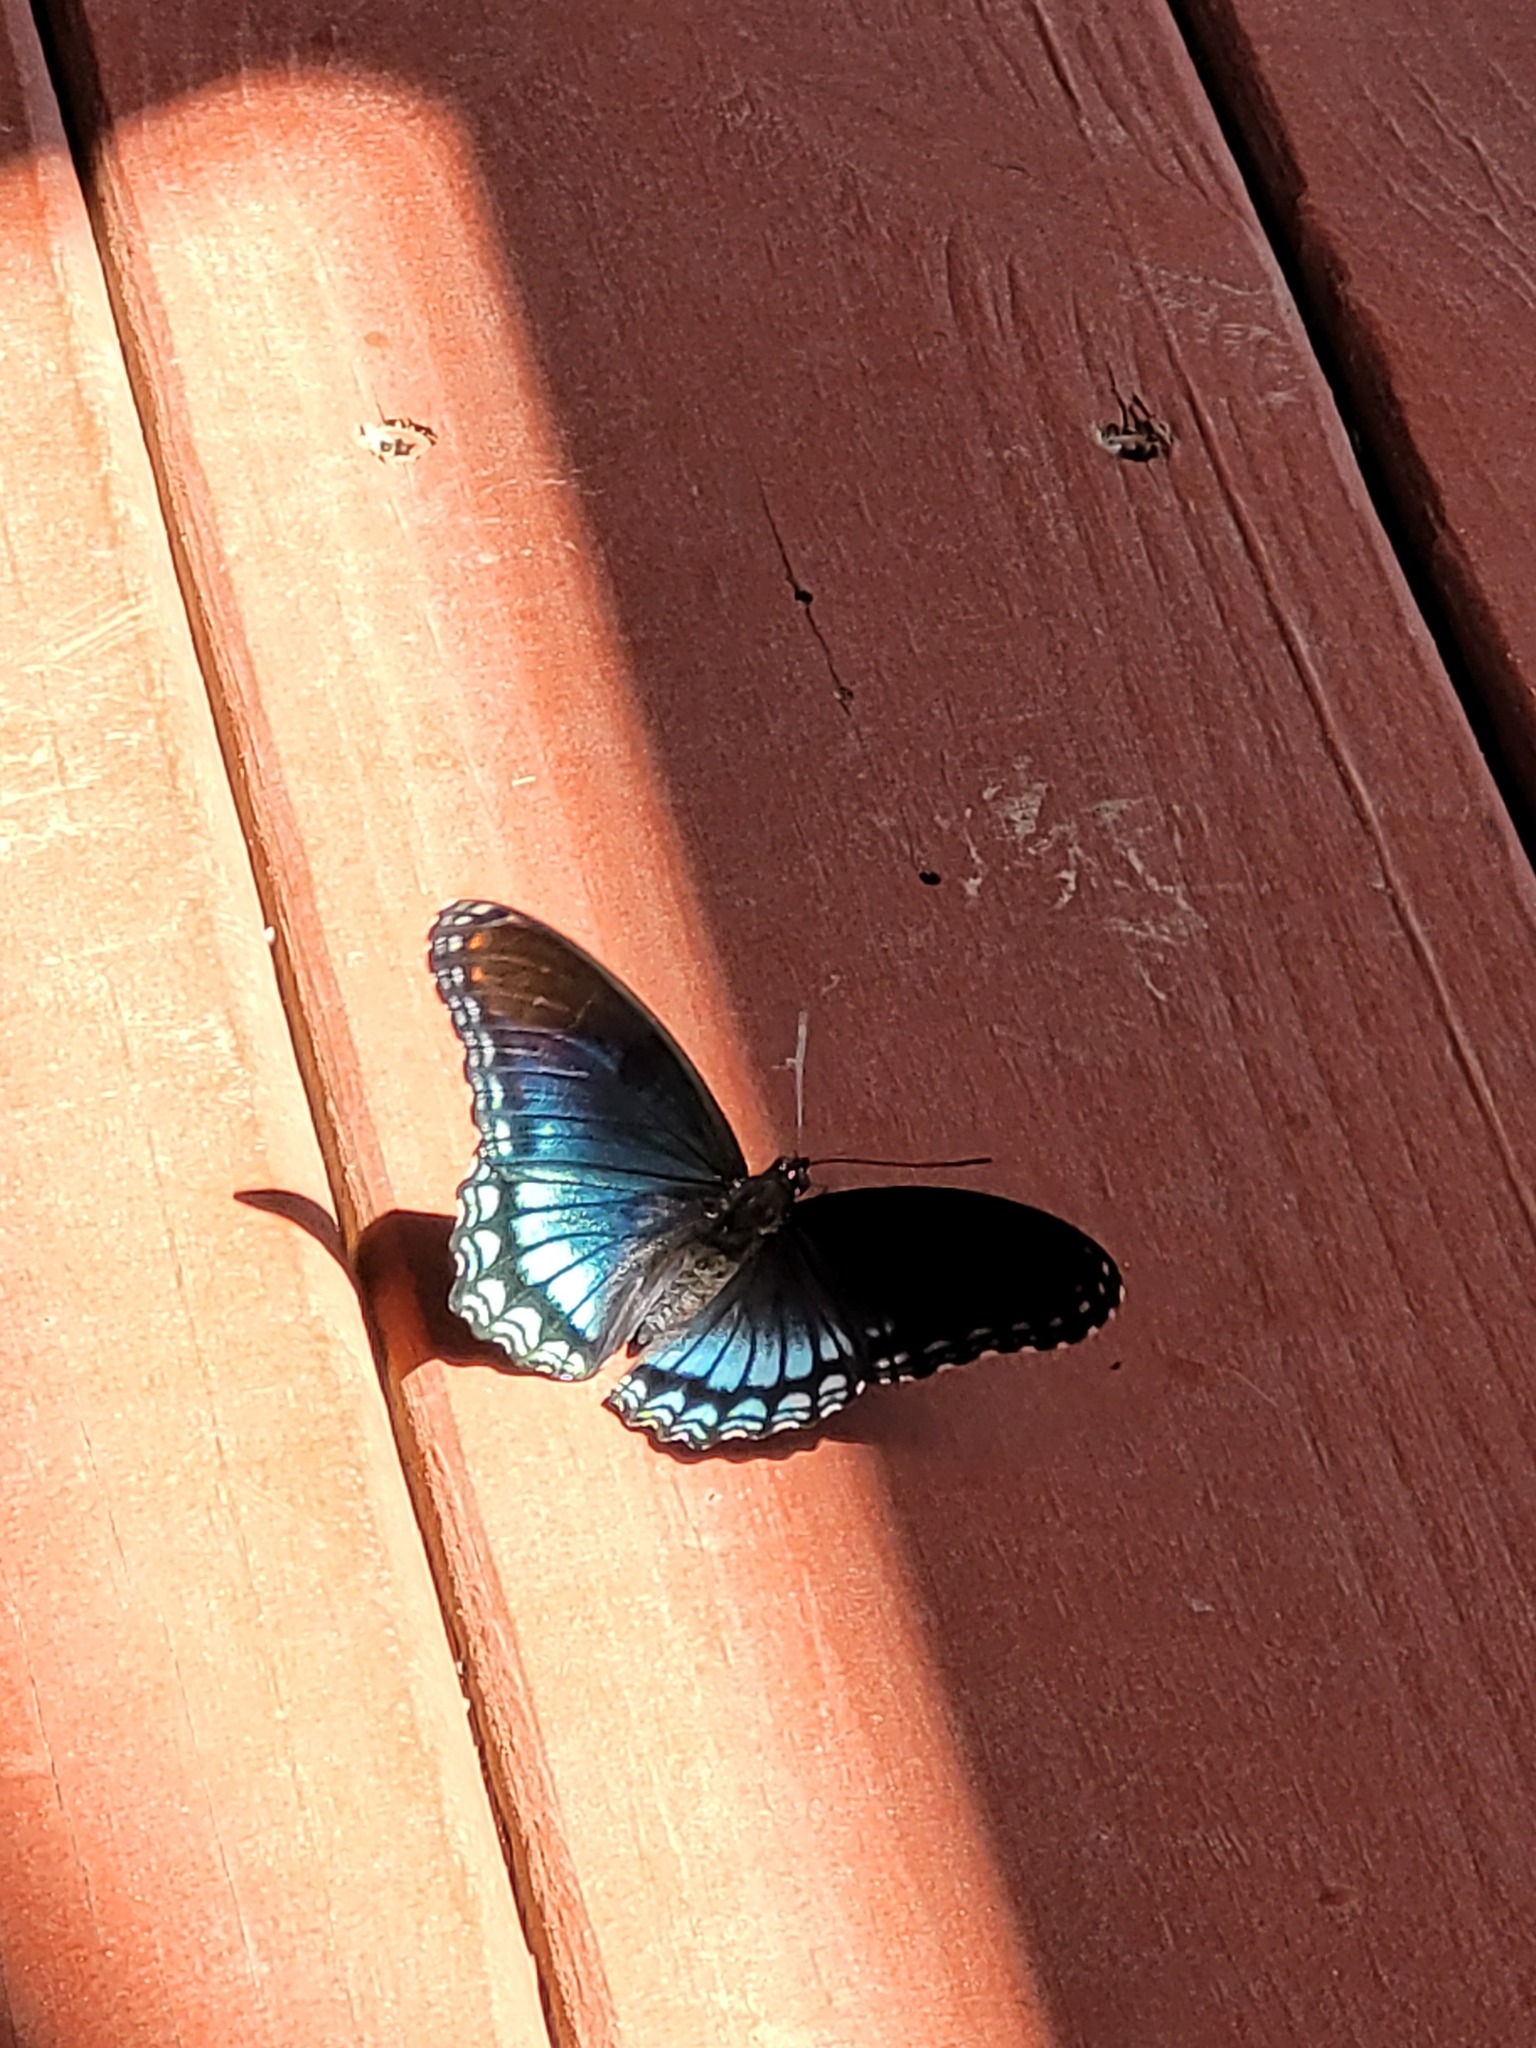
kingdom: Animalia
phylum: Arthropoda
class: Insecta
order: Lepidoptera
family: Nymphalidae
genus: Limenitis
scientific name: Limenitis arthemis
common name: Red-spotted admiral
